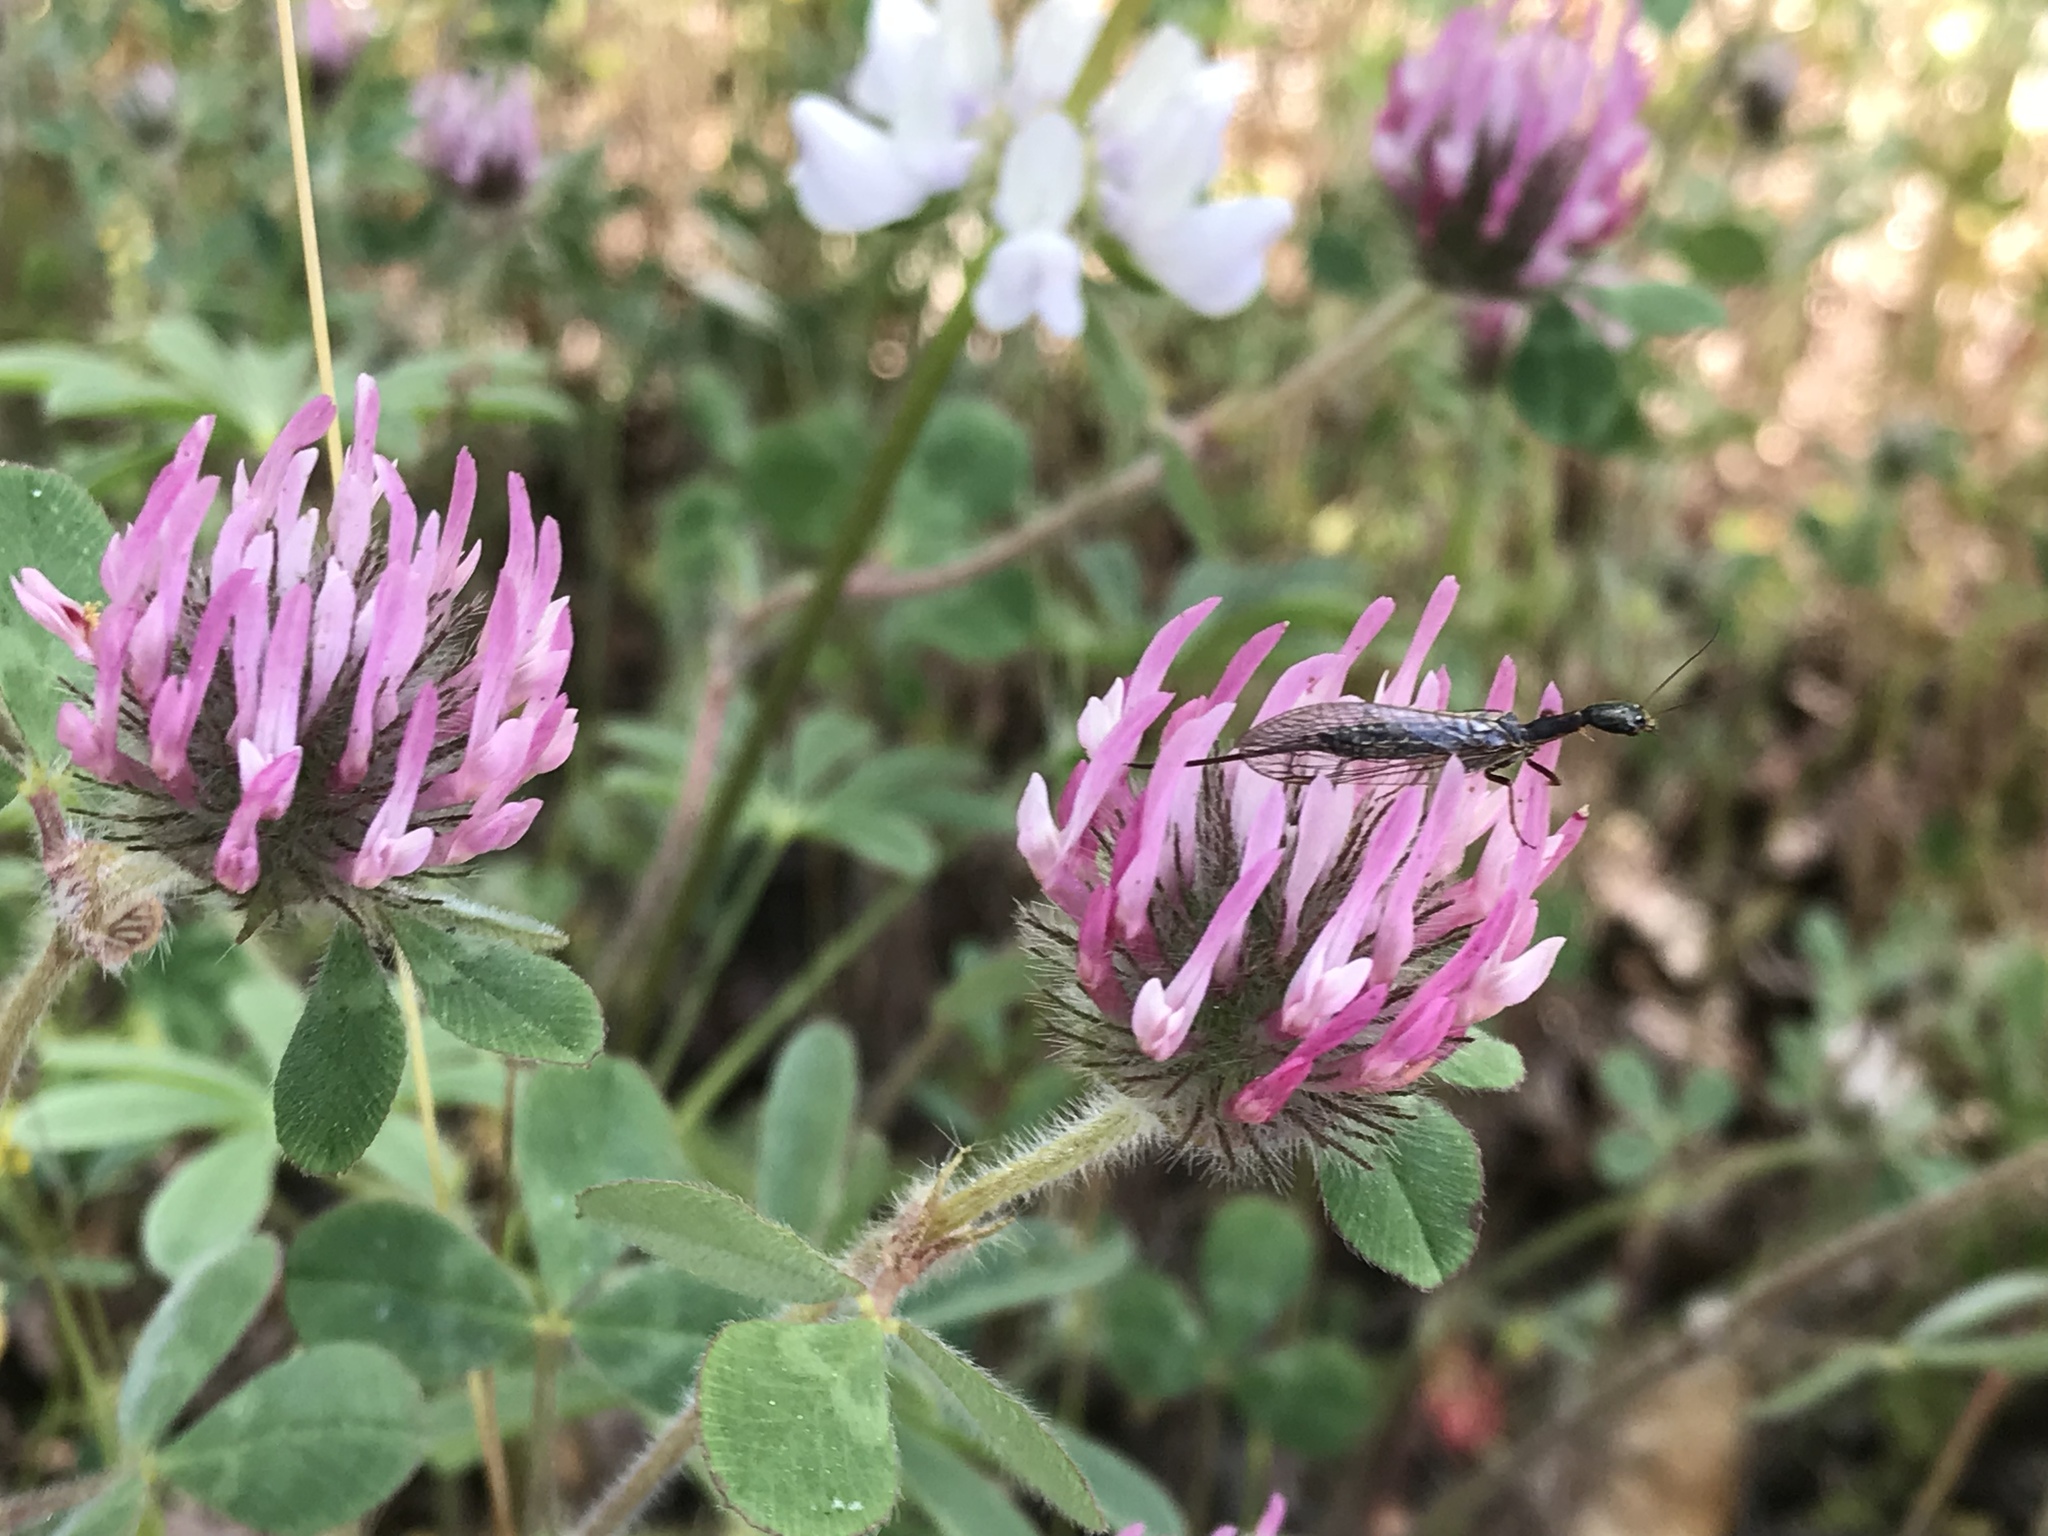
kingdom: Plantae
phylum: Tracheophyta
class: Magnoliopsida
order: Fabales
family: Fabaceae
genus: Trifolium
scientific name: Trifolium hirtum
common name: Rose clover
